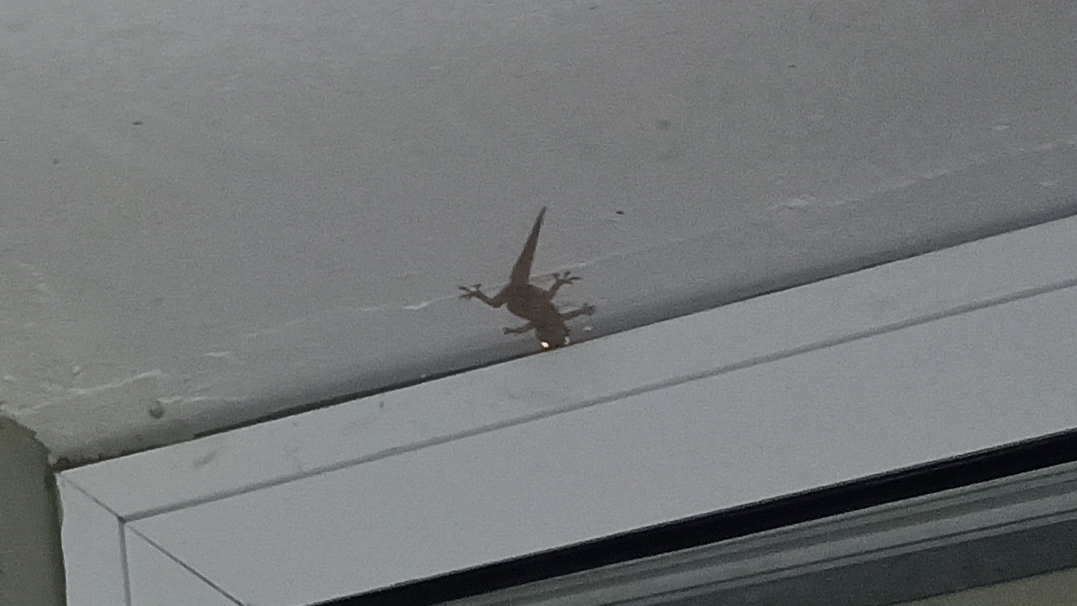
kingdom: Animalia
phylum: Chordata
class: Squamata
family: Gekkonidae
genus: Hemidactylus
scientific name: Hemidactylus mabouia
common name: House gecko
